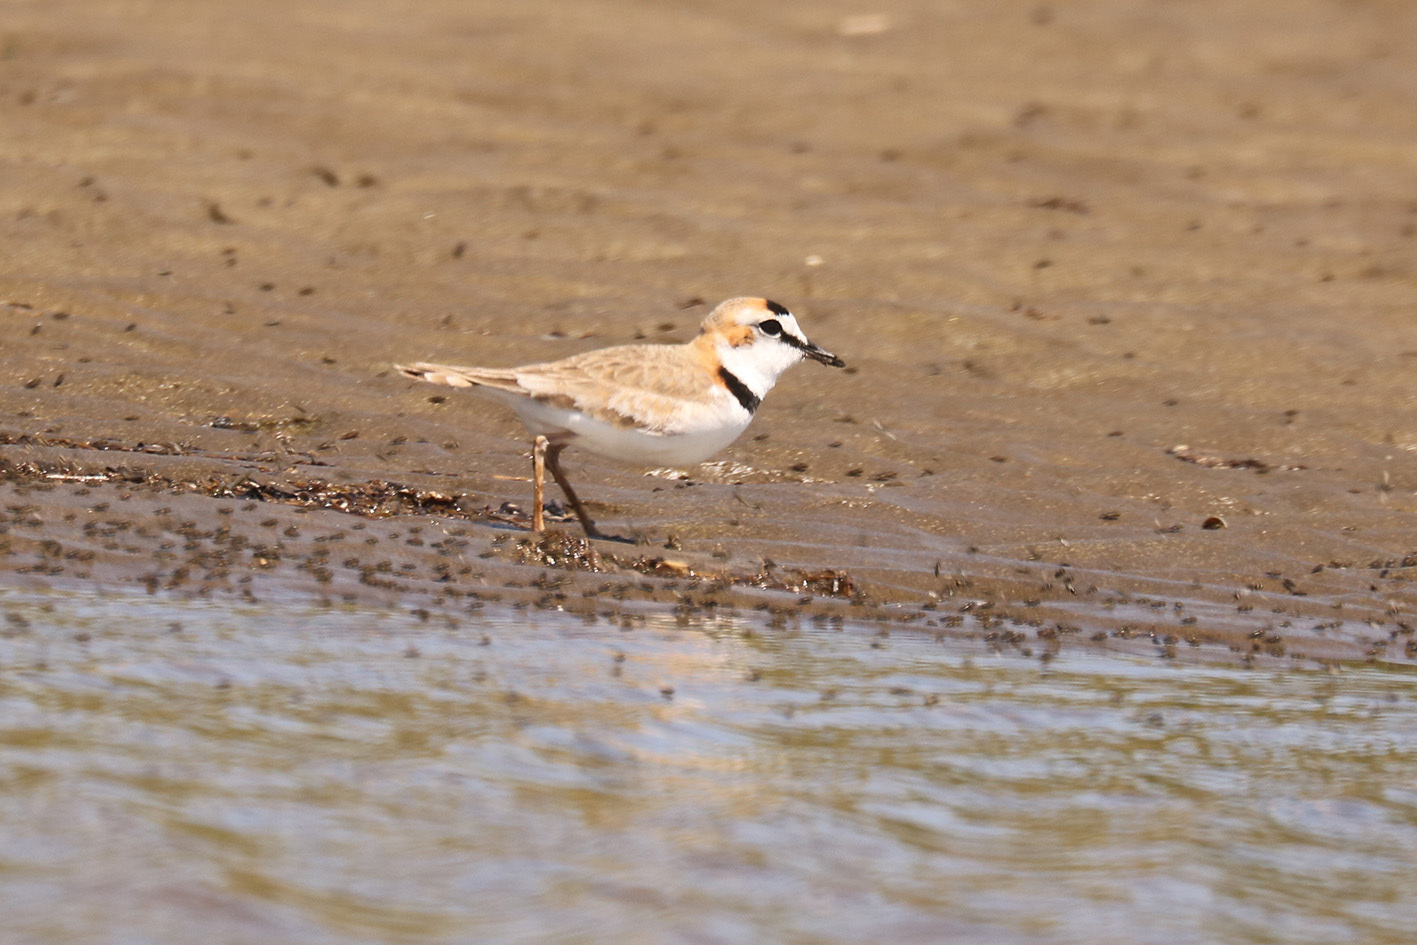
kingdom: Animalia
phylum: Chordata
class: Aves
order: Charadriiformes
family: Charadriidae
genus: Anarhynchus
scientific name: Anarhynchus
